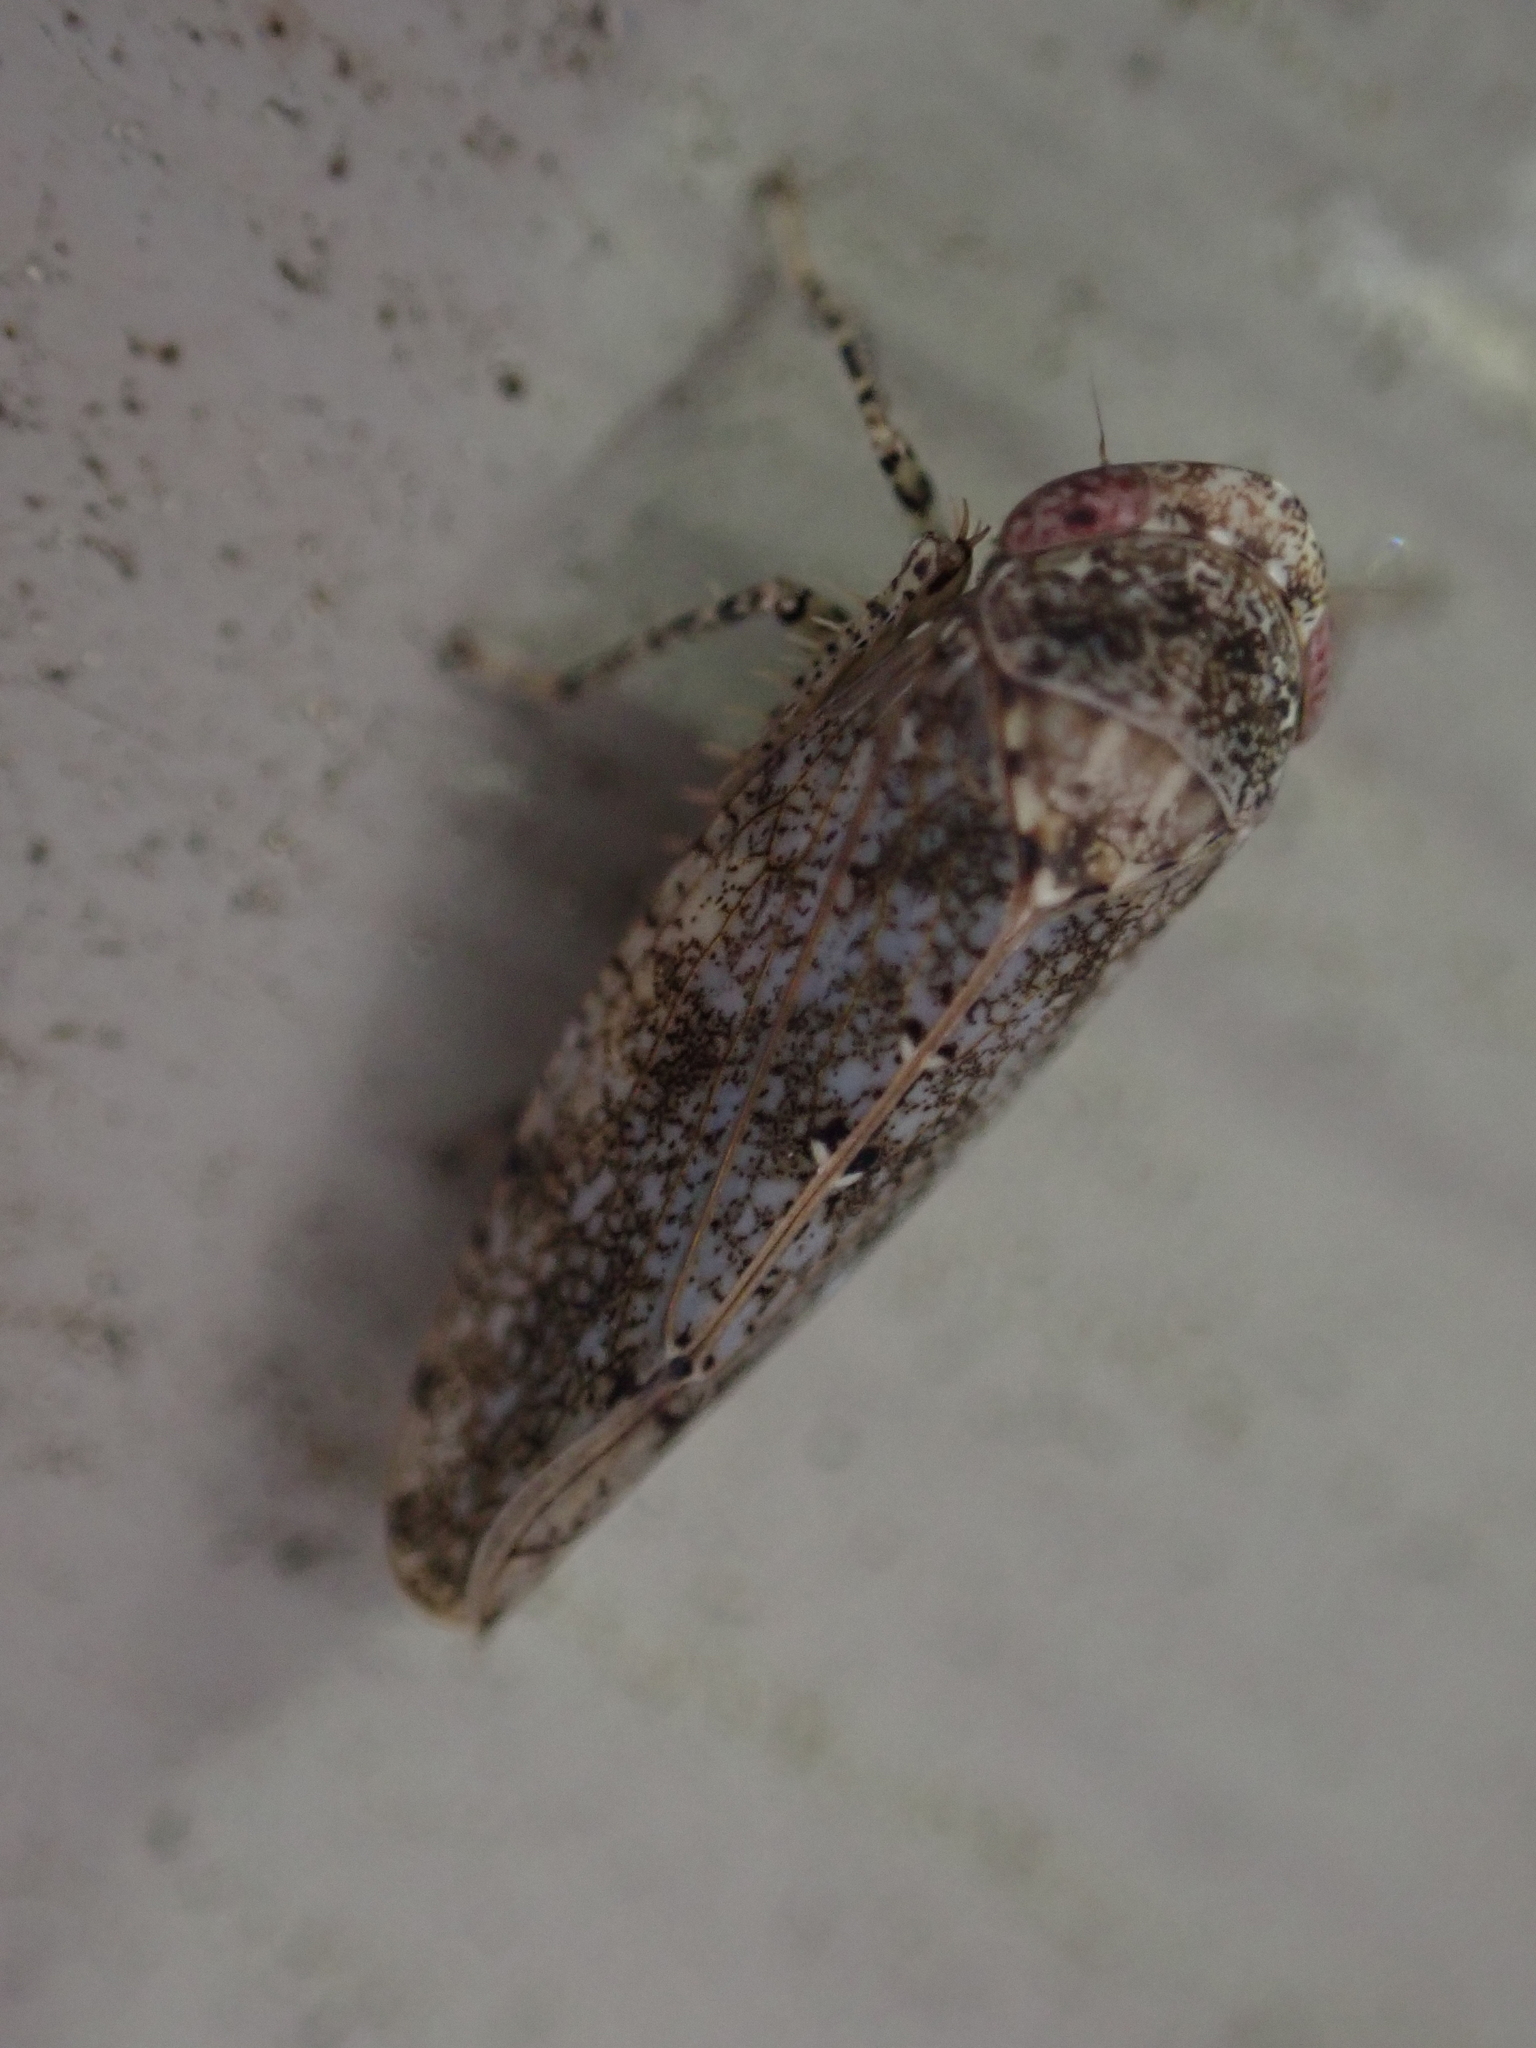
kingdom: Animalia
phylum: Arthropoda
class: Insecta
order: Hemiptera
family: Cicadellidae
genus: Paraphlepsius
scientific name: Paraphlepsius tennessus
